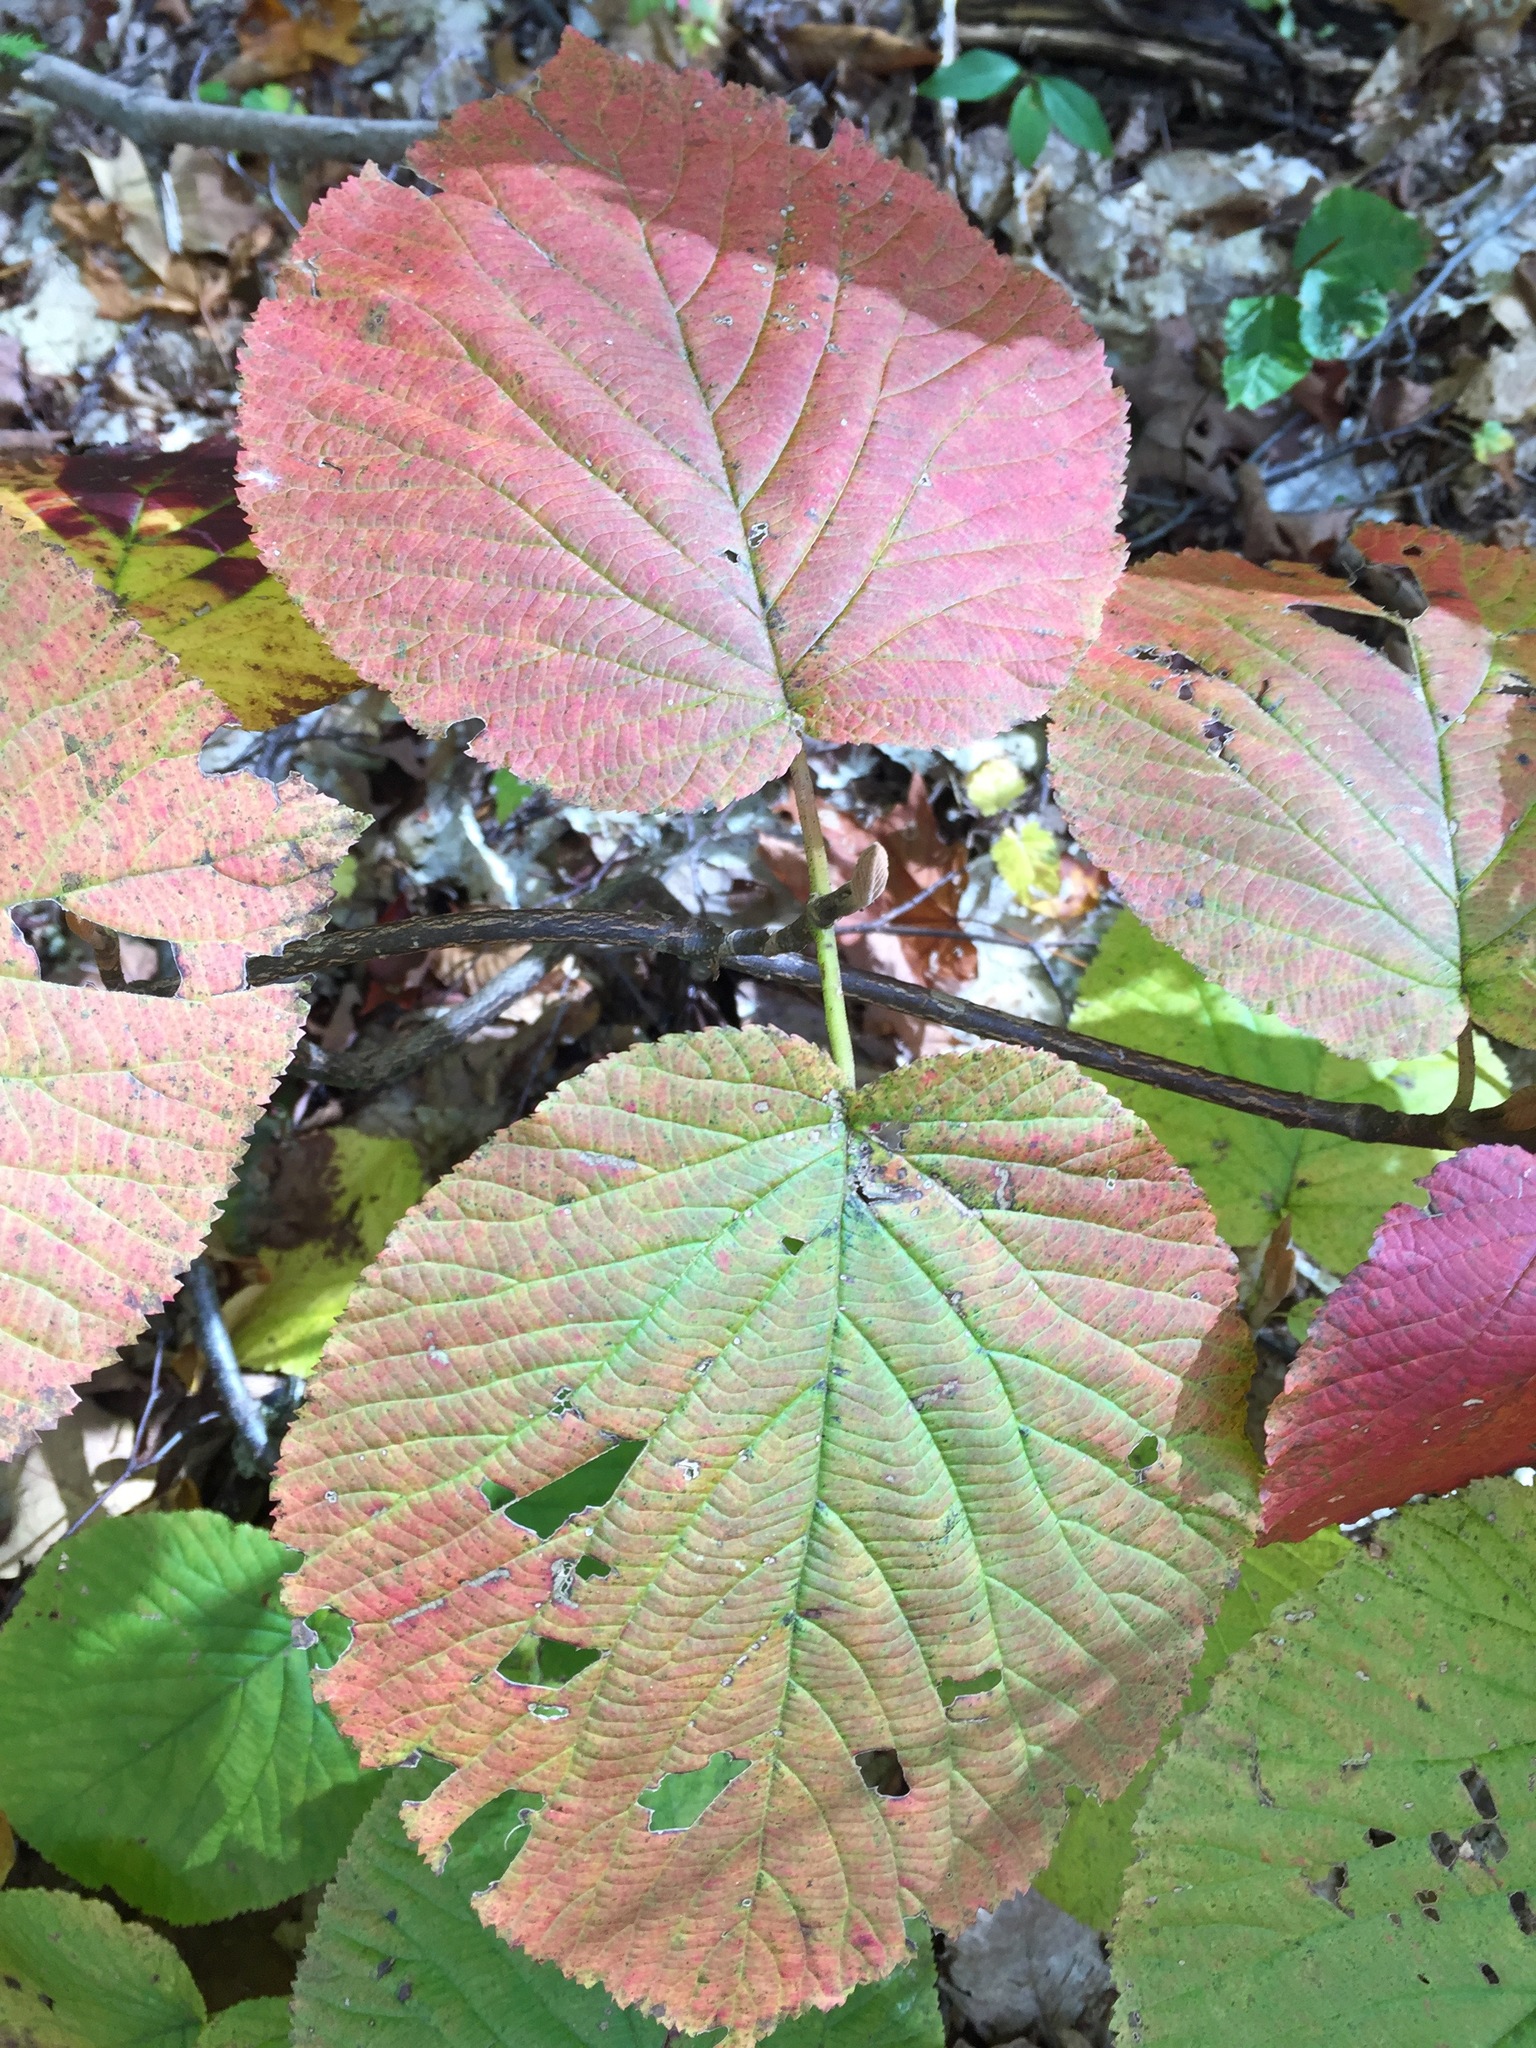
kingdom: Plantae
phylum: Tracheophyta
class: Magnoliopsida
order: Dipsacales
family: Viburnaceae
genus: Viburnum
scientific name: Viburnum lantanoides
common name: Hobblebush
